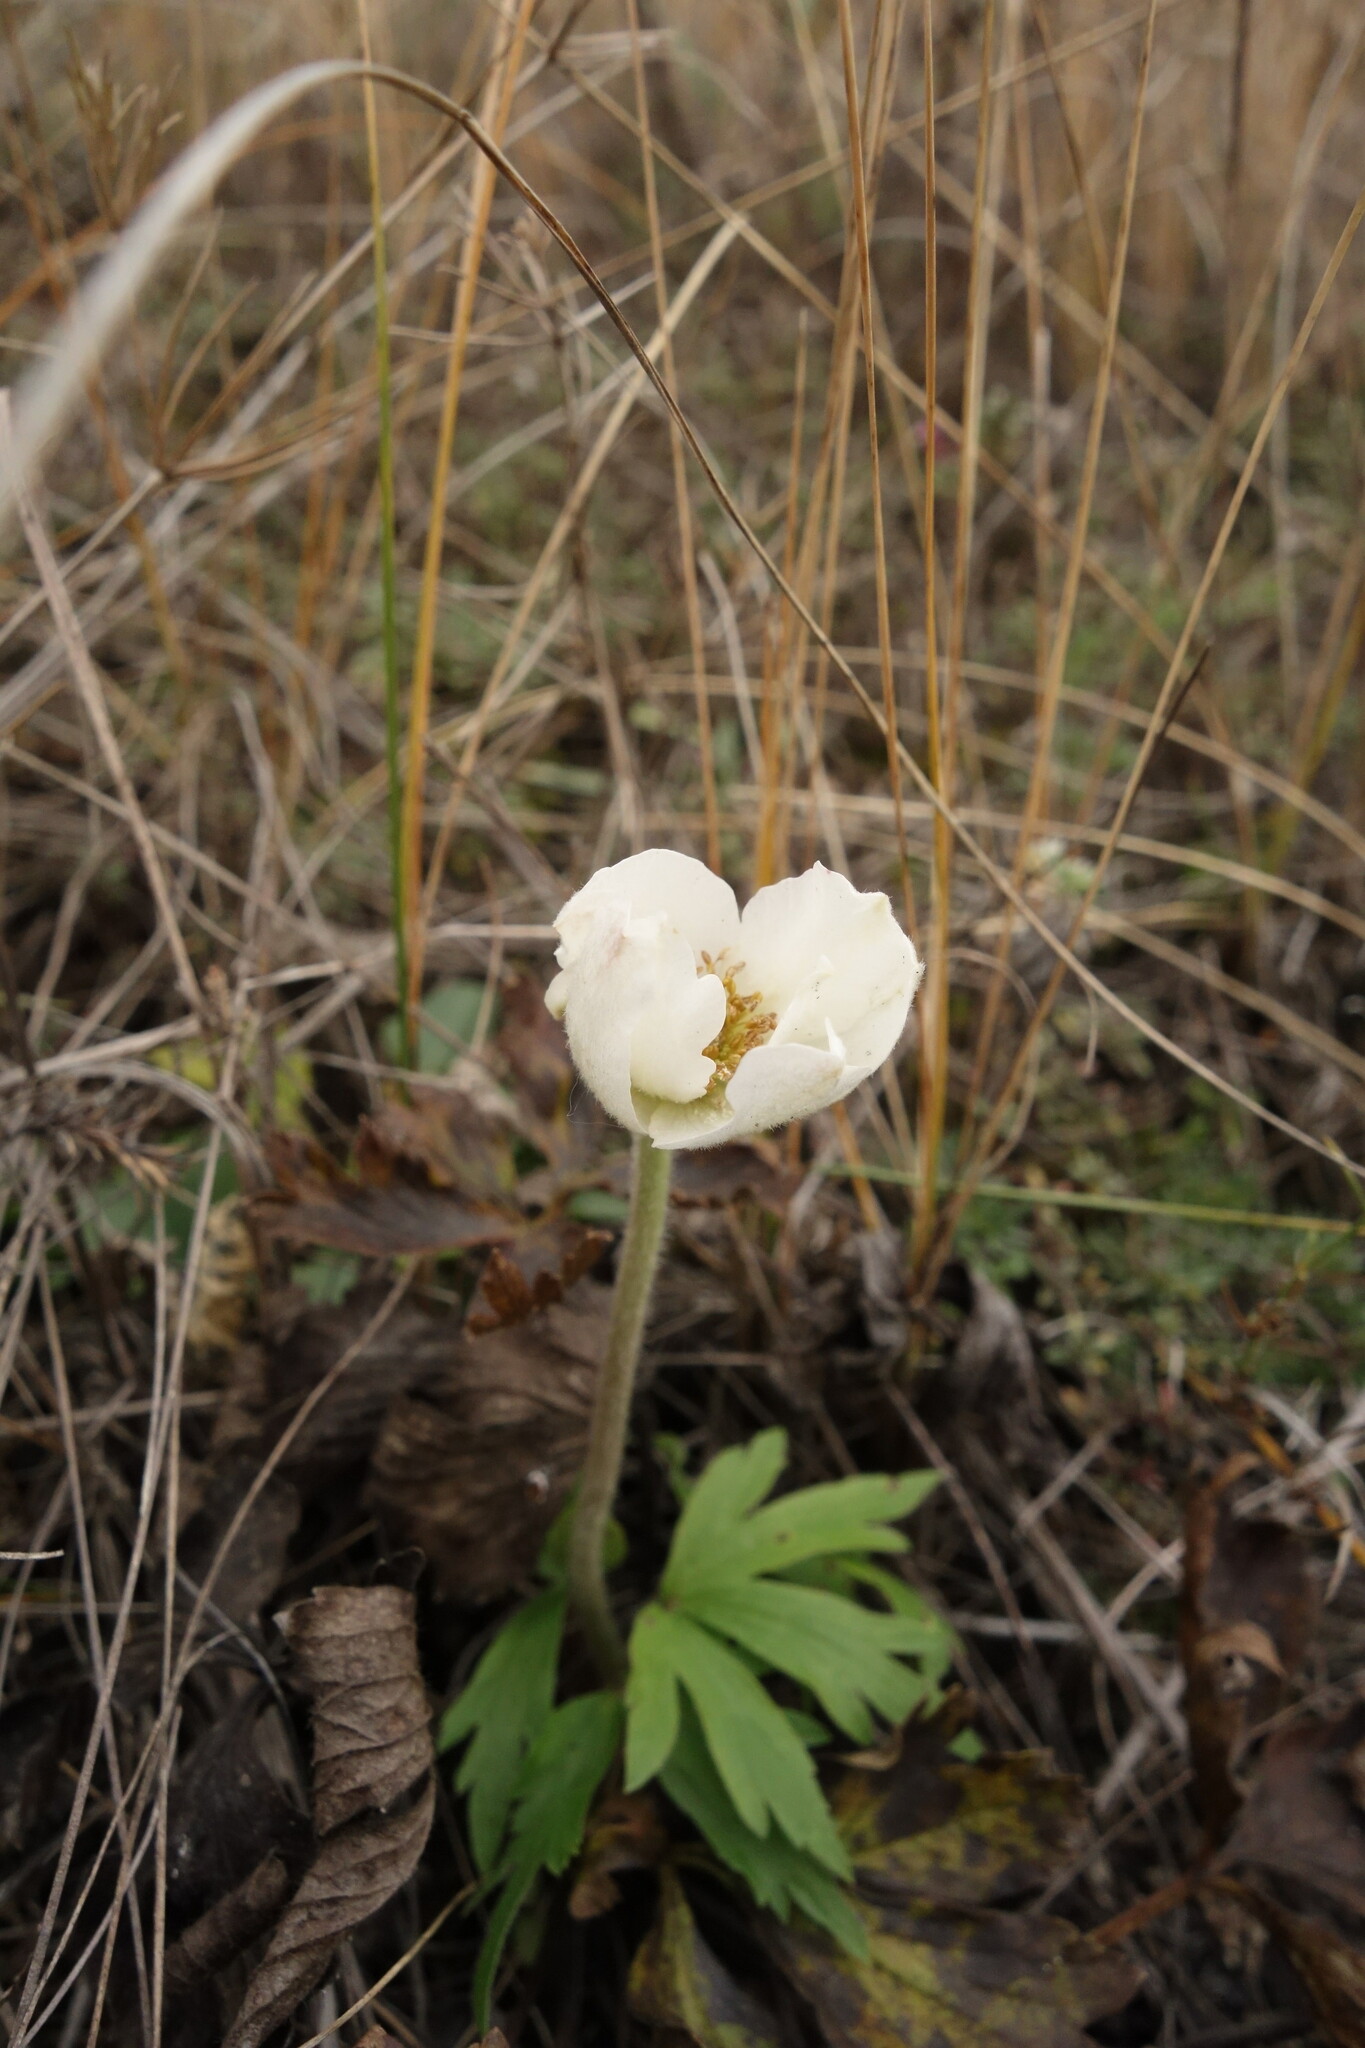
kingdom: Plantae
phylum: Tracheophyta
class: Magnoliopsida
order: Ranunculales
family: Ranunculaceae
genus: Anemone
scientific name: Anemone sylvestris
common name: Snowdrop anemone
